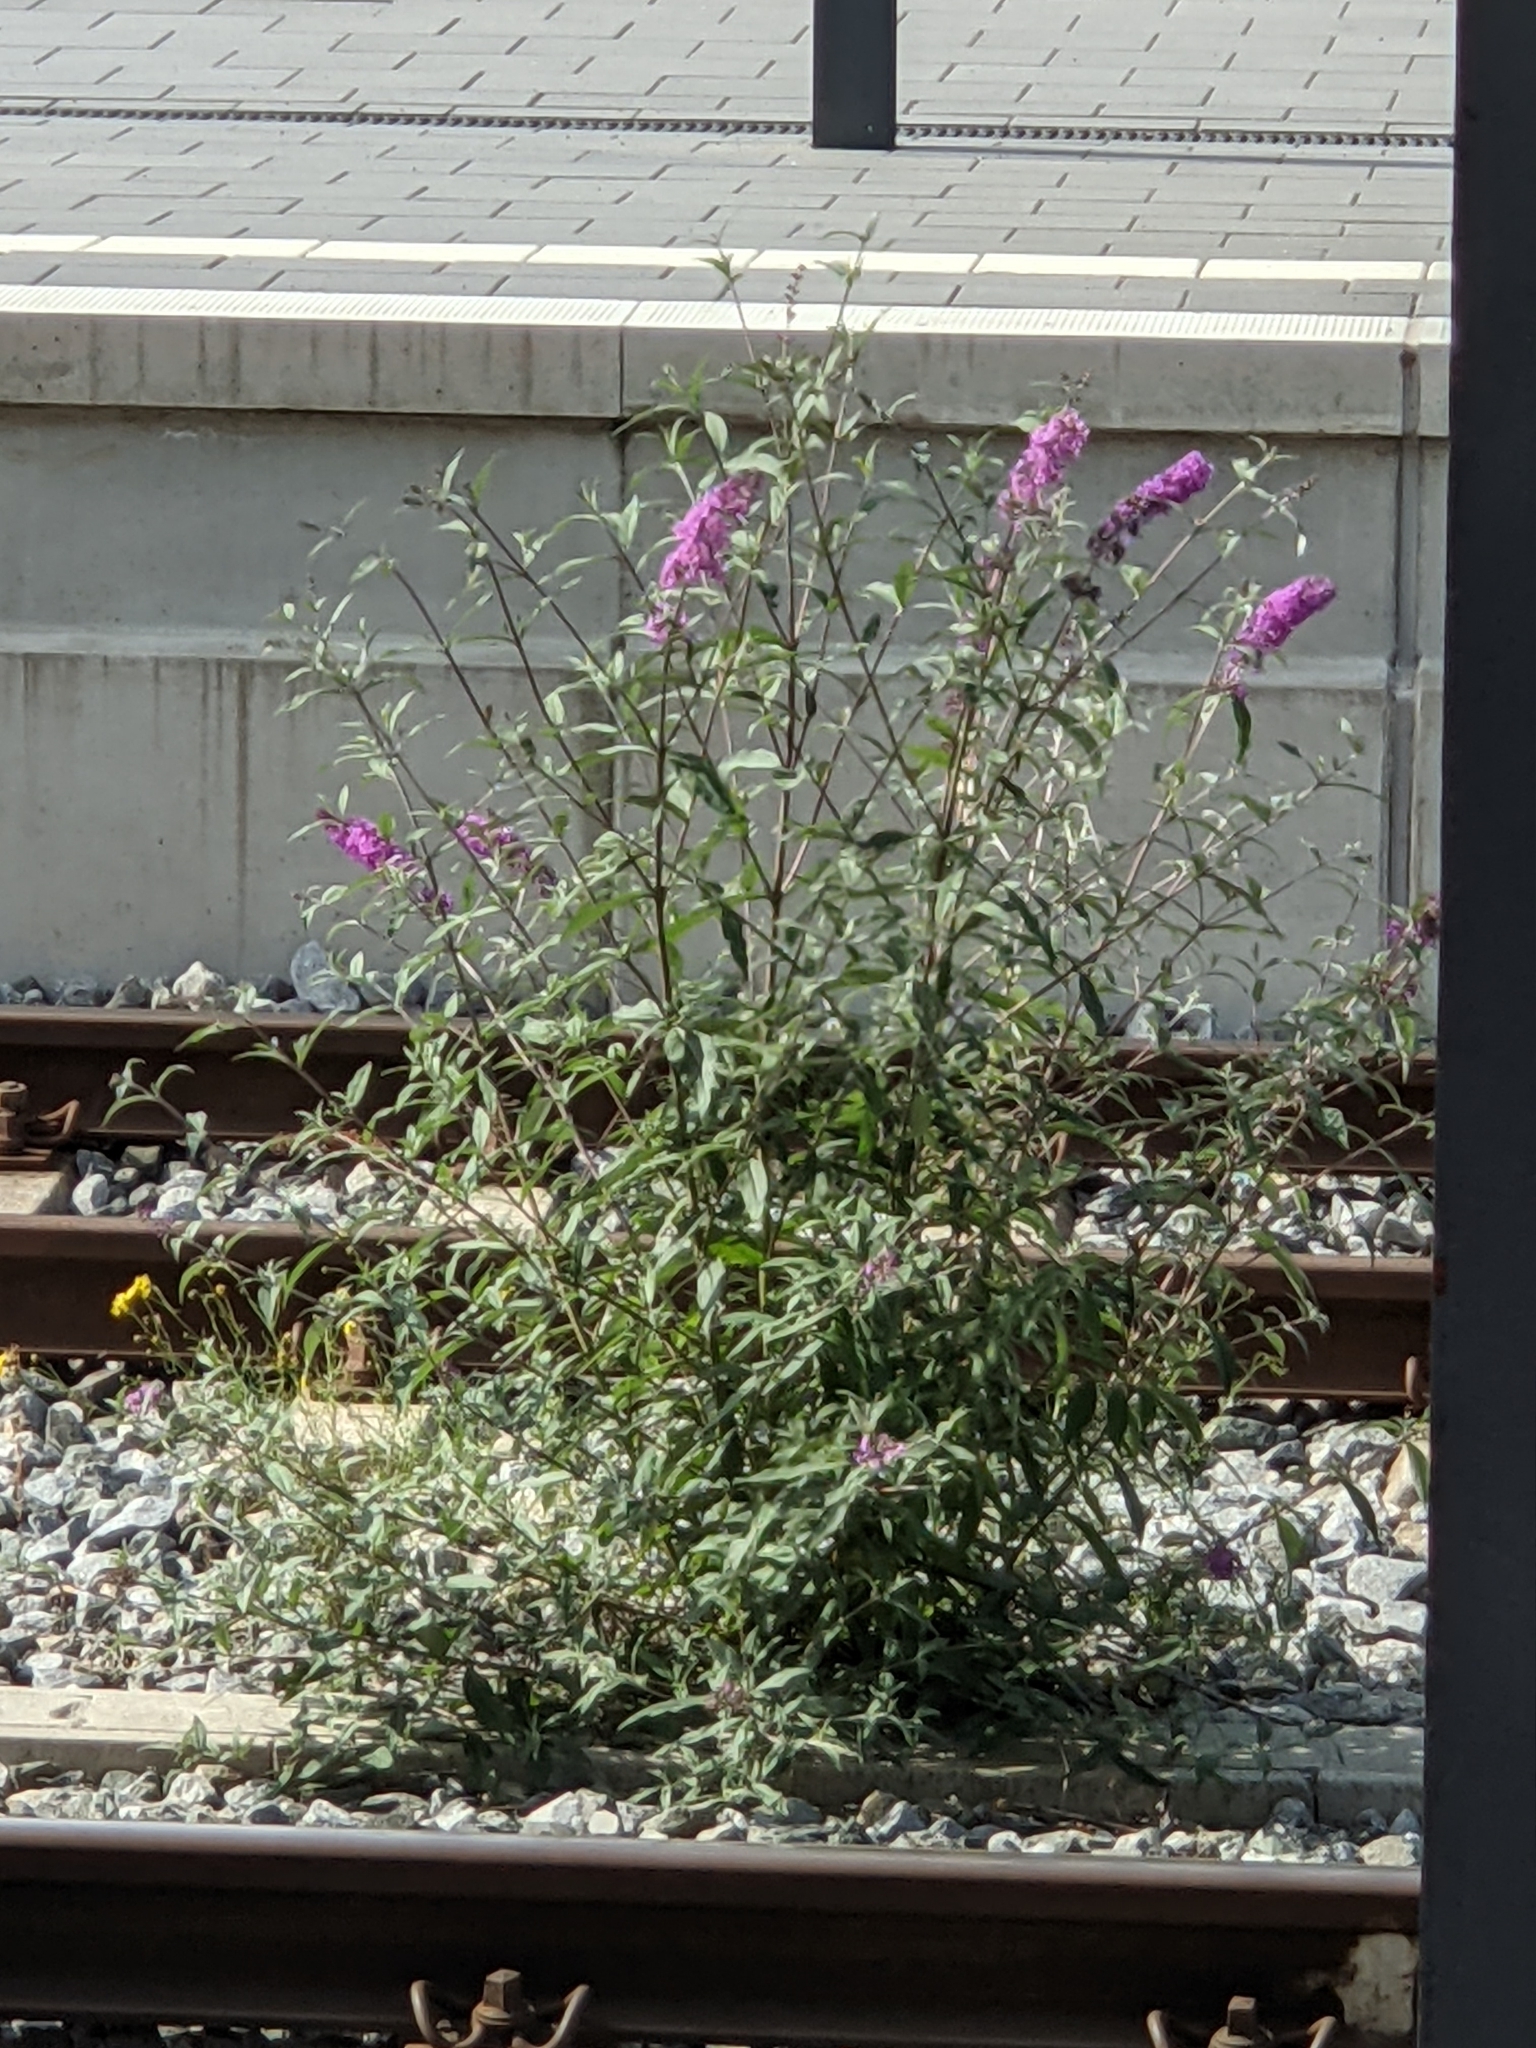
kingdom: Plantae
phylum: Tracheophyta
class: Magnoliopsida
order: Lamiales
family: Scrophulariaceae
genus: Buddleja
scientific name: Buddleja davidii
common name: Butterfly-bush
